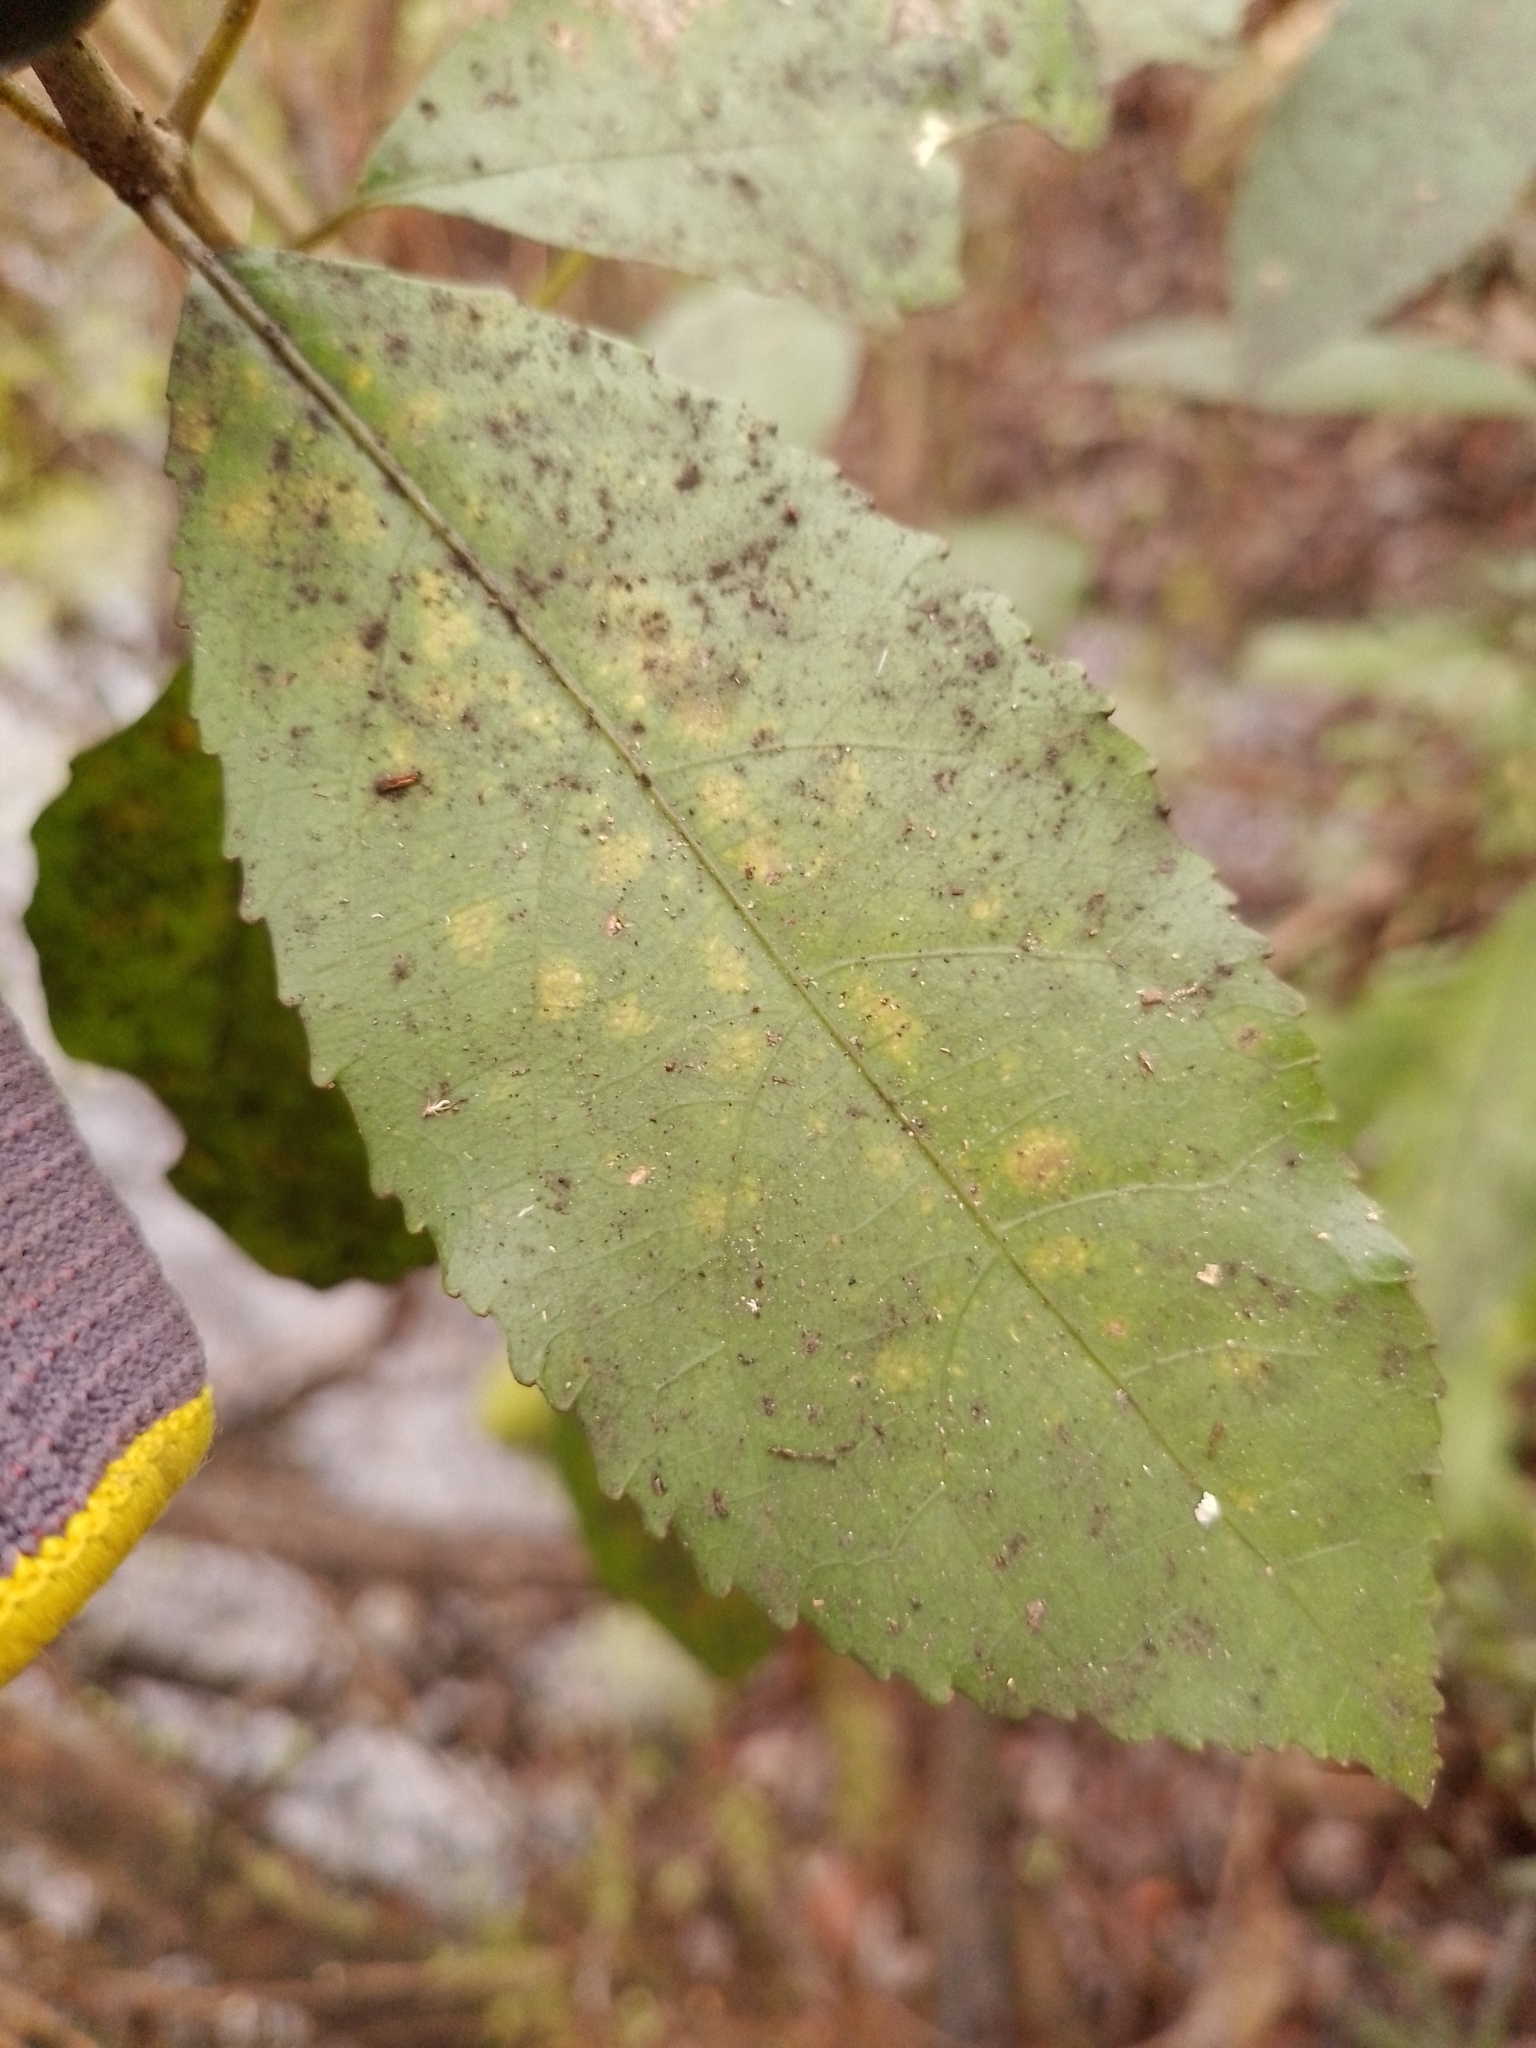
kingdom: Plantae
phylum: Tracheophyta
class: Magnoliopsida
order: Malpighiales
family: Violaceae
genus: Melicytus
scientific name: Melicytus ramiflorus
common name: Mahoe
